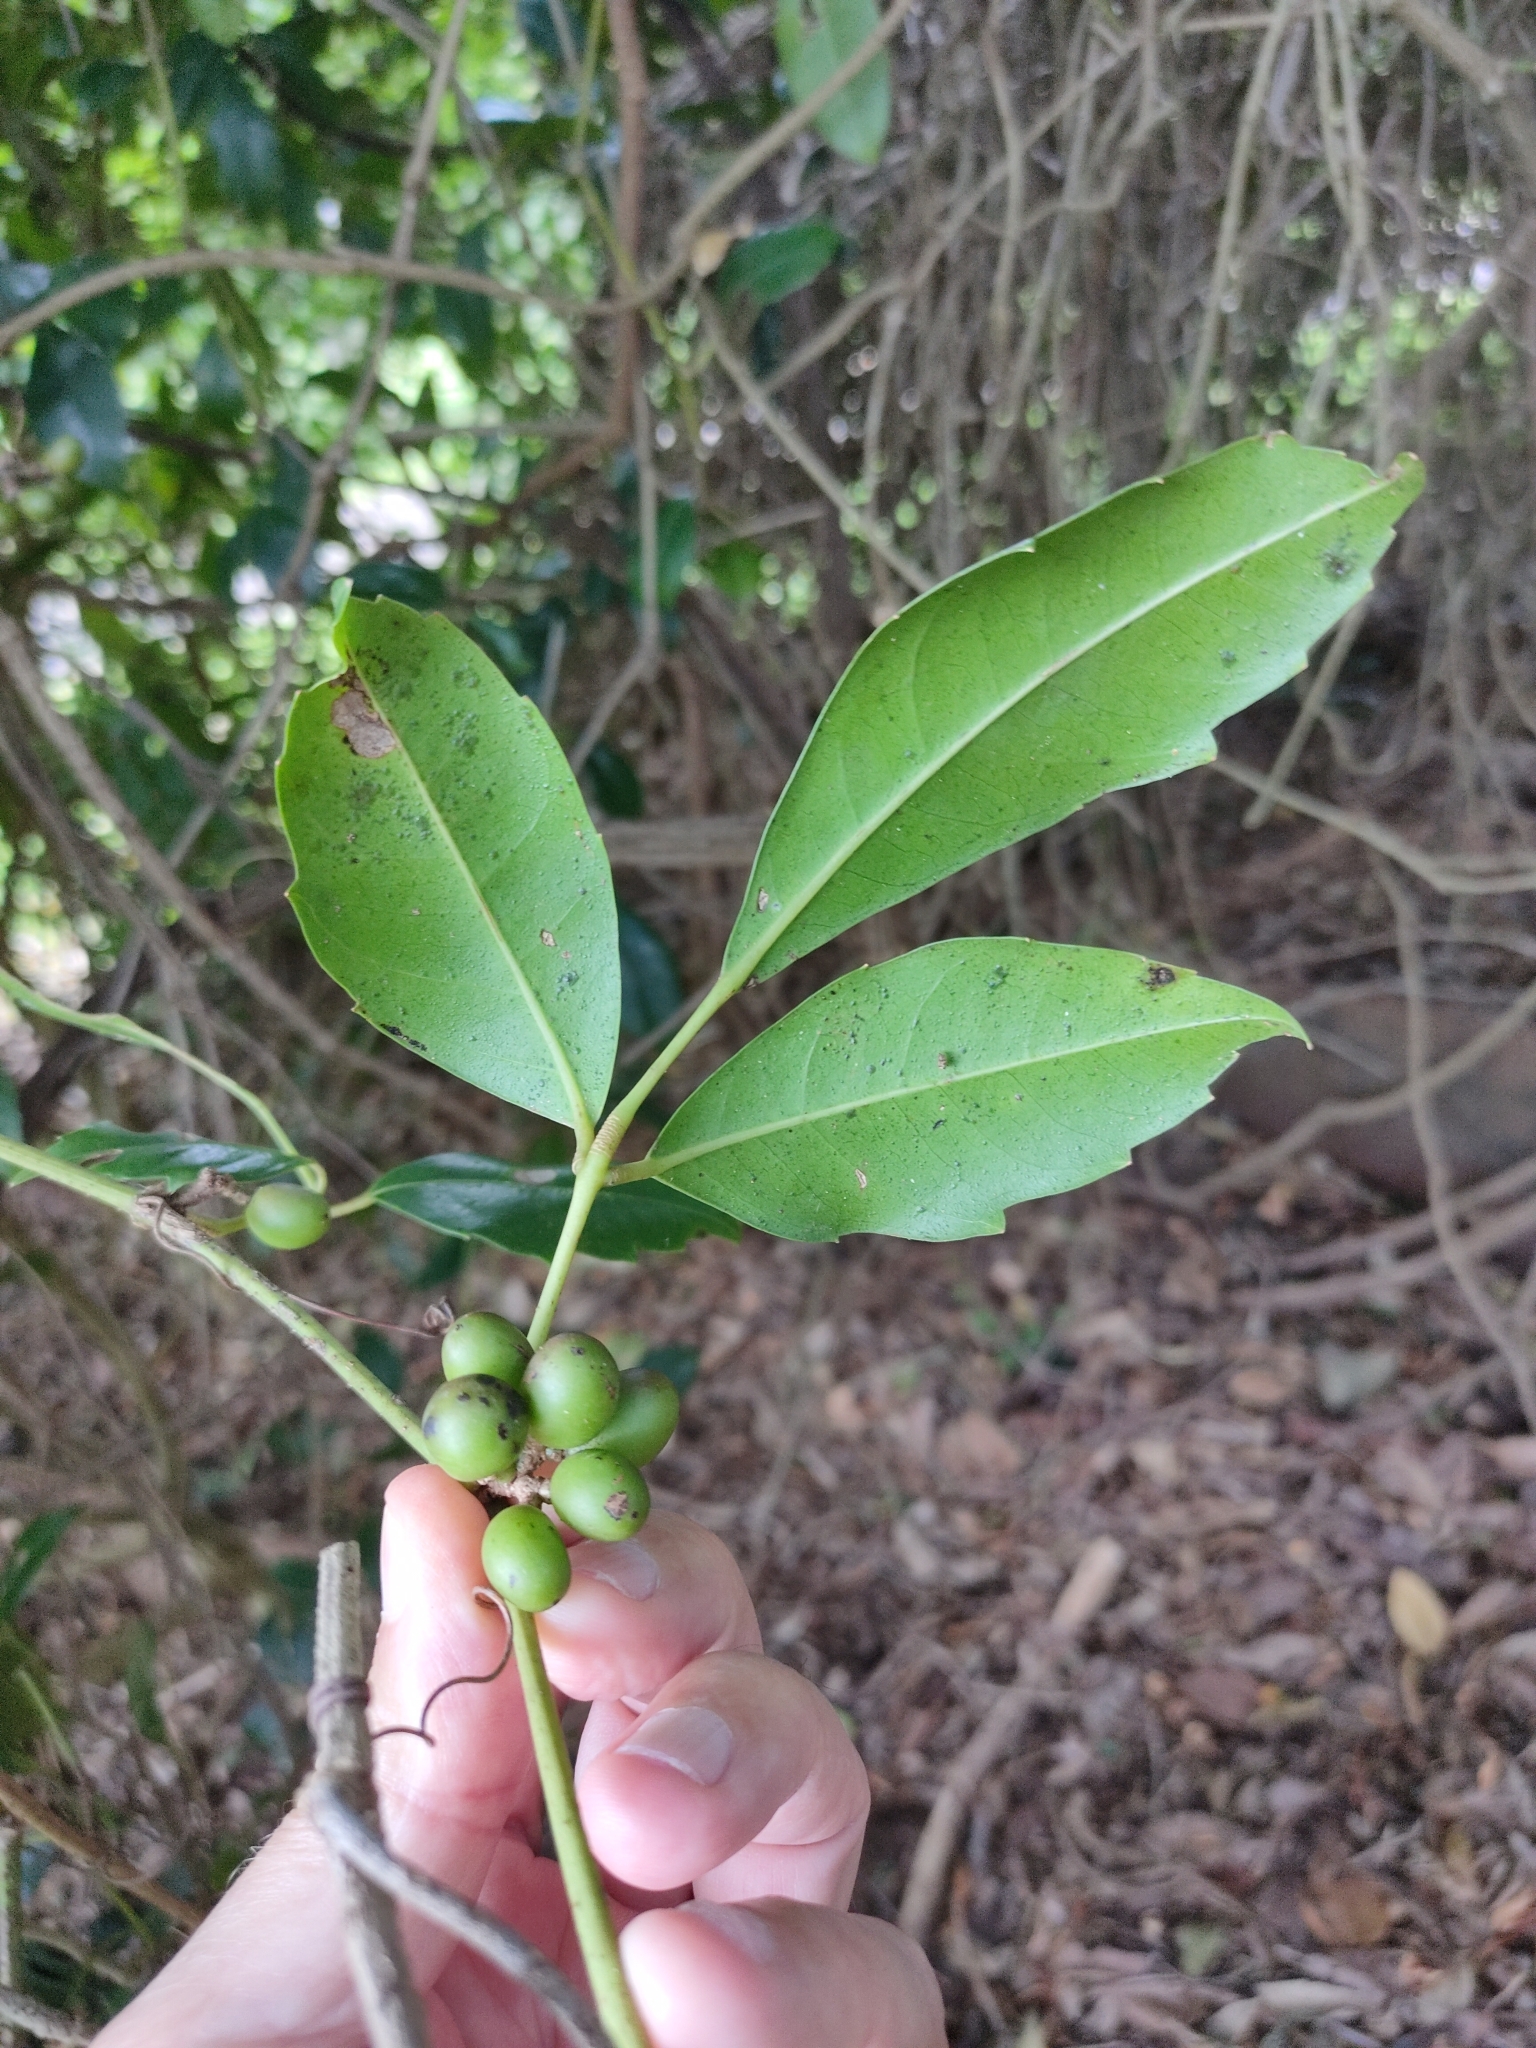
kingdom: Plantae
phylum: Tracheophyta
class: Magnoliopsida
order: Vitales
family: Vitaceae
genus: Tetrastigma
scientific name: Tetrastigma nitens
